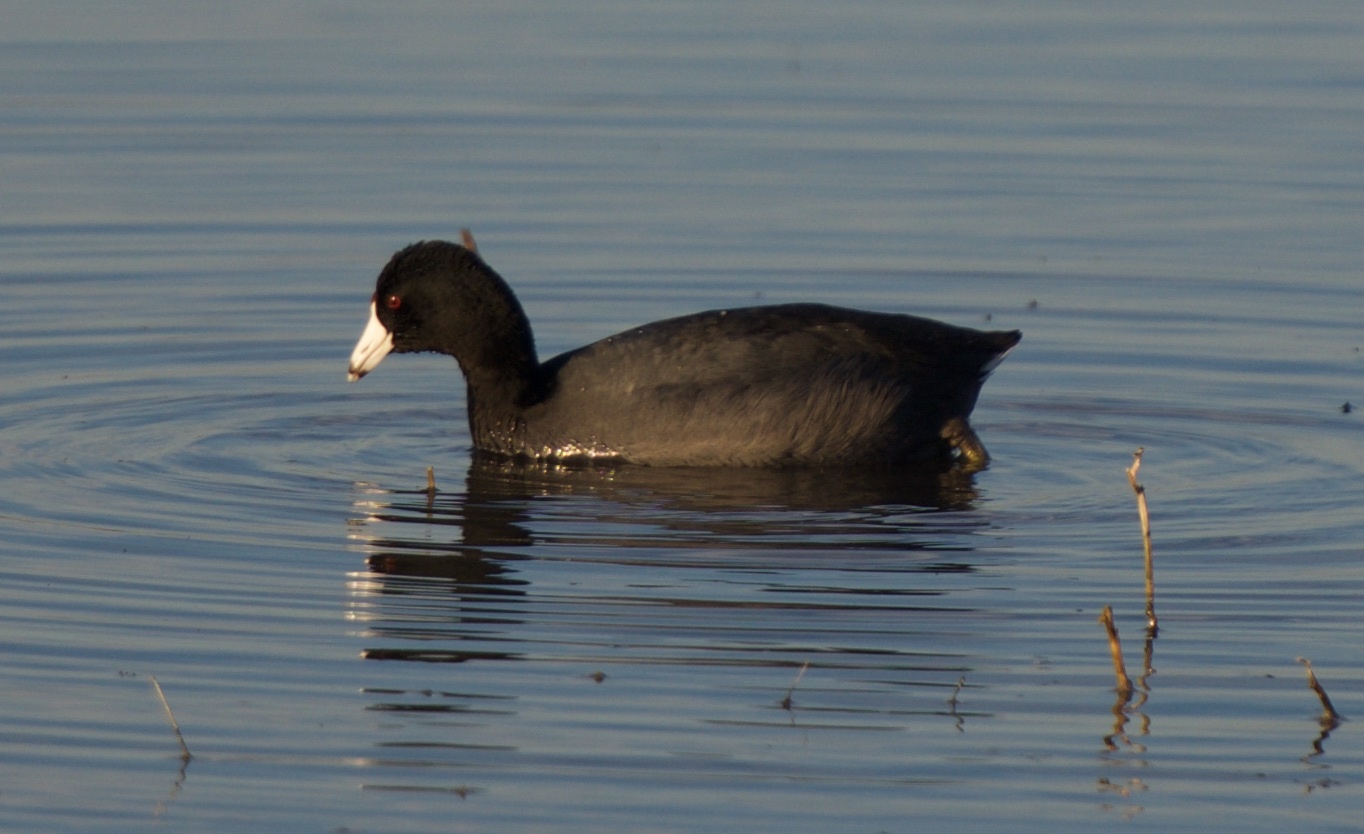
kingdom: Animalia
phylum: Chordata
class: Aves
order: Gruiformes
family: Rallidae
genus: Fulica
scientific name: Fulica americana
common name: American coot
